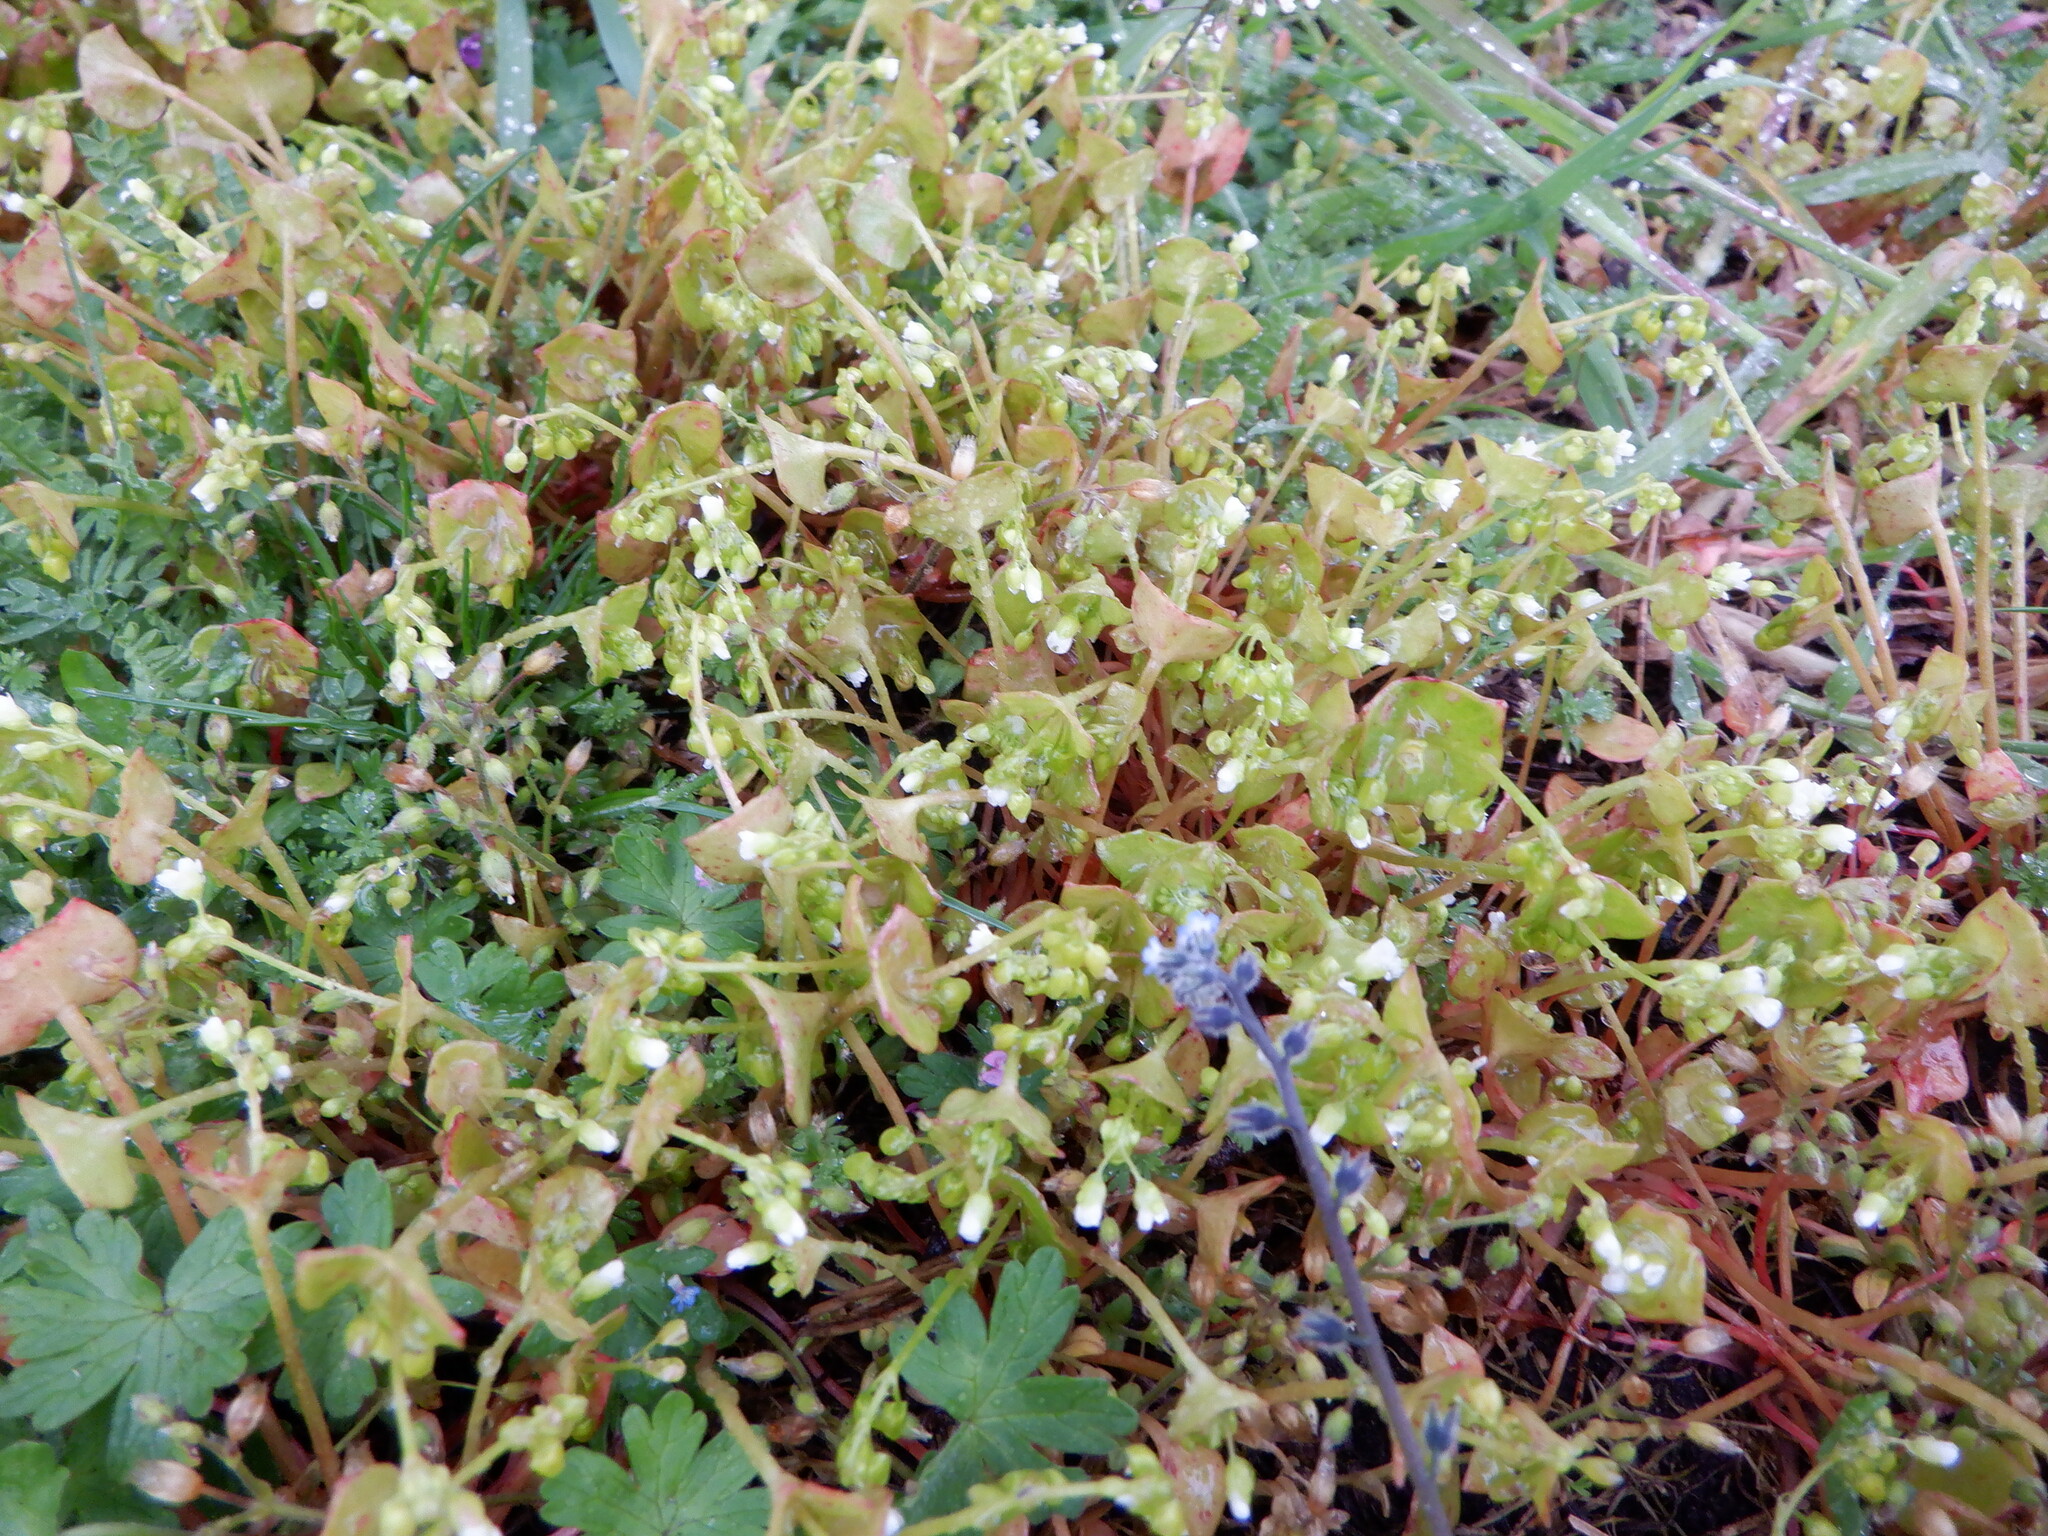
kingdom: Plantae
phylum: Tracheophyta
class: Magnoliopsida
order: Caryophyllales
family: Montiaceae
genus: Claytonia
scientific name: Claytonia perfoliata
